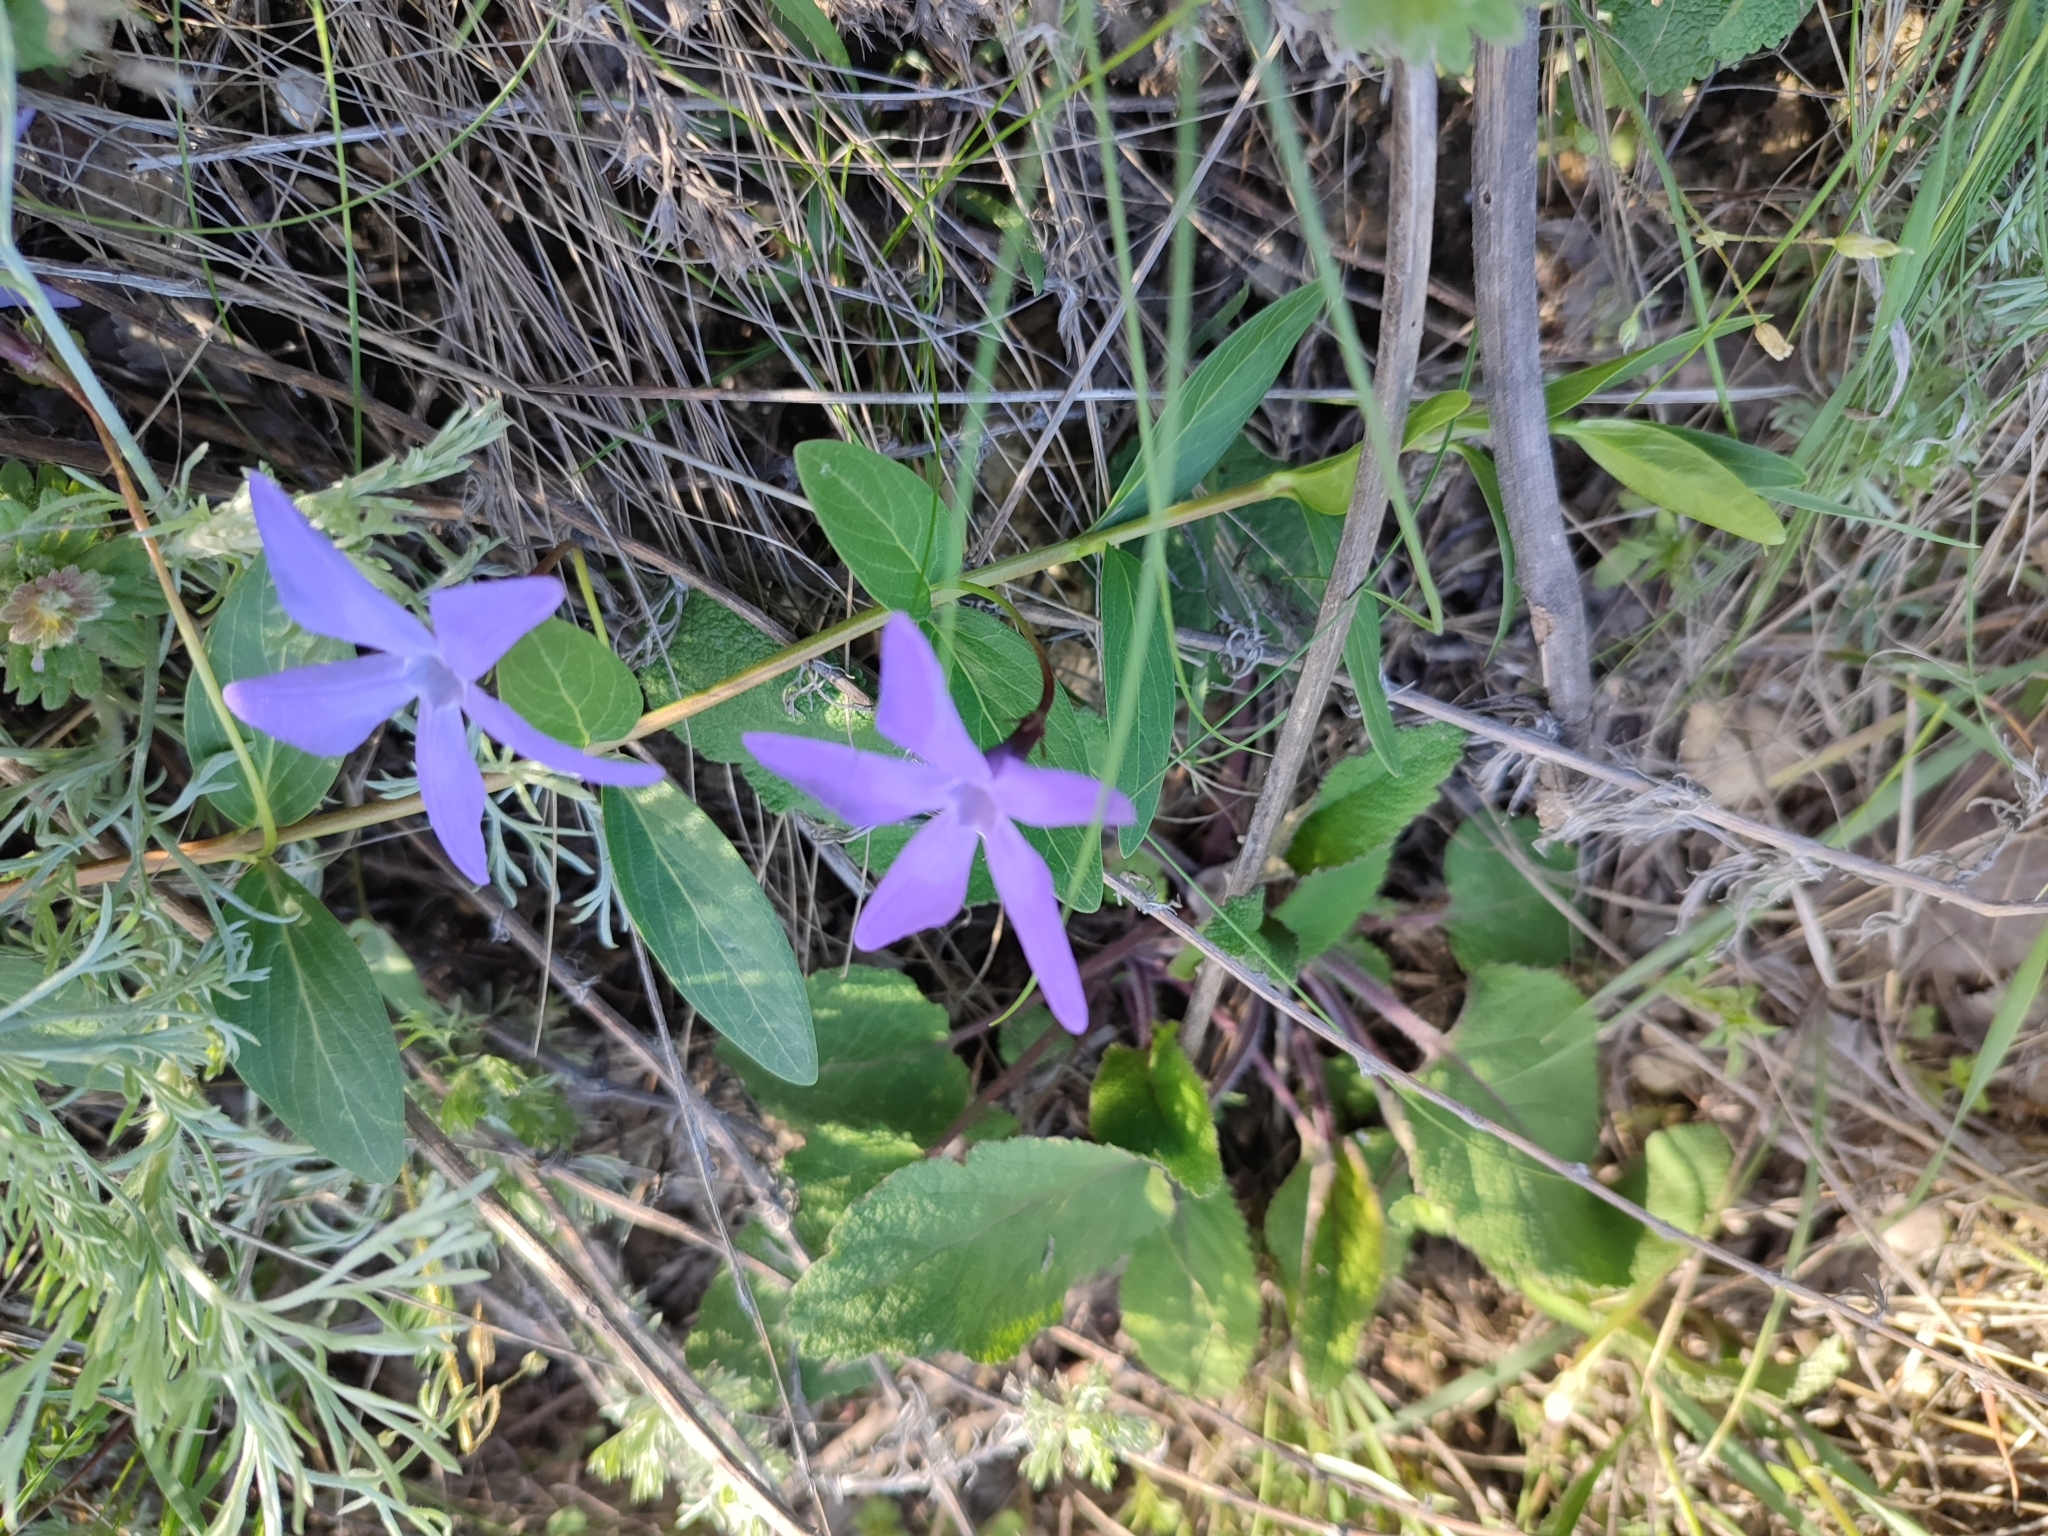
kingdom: Plantae
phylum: Tracheophyta
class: Magnoliopsida
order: Gentianales
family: Apocynaceae
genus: Vinca
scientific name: Vinca herbacea
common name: Herbaceous periwinkle
